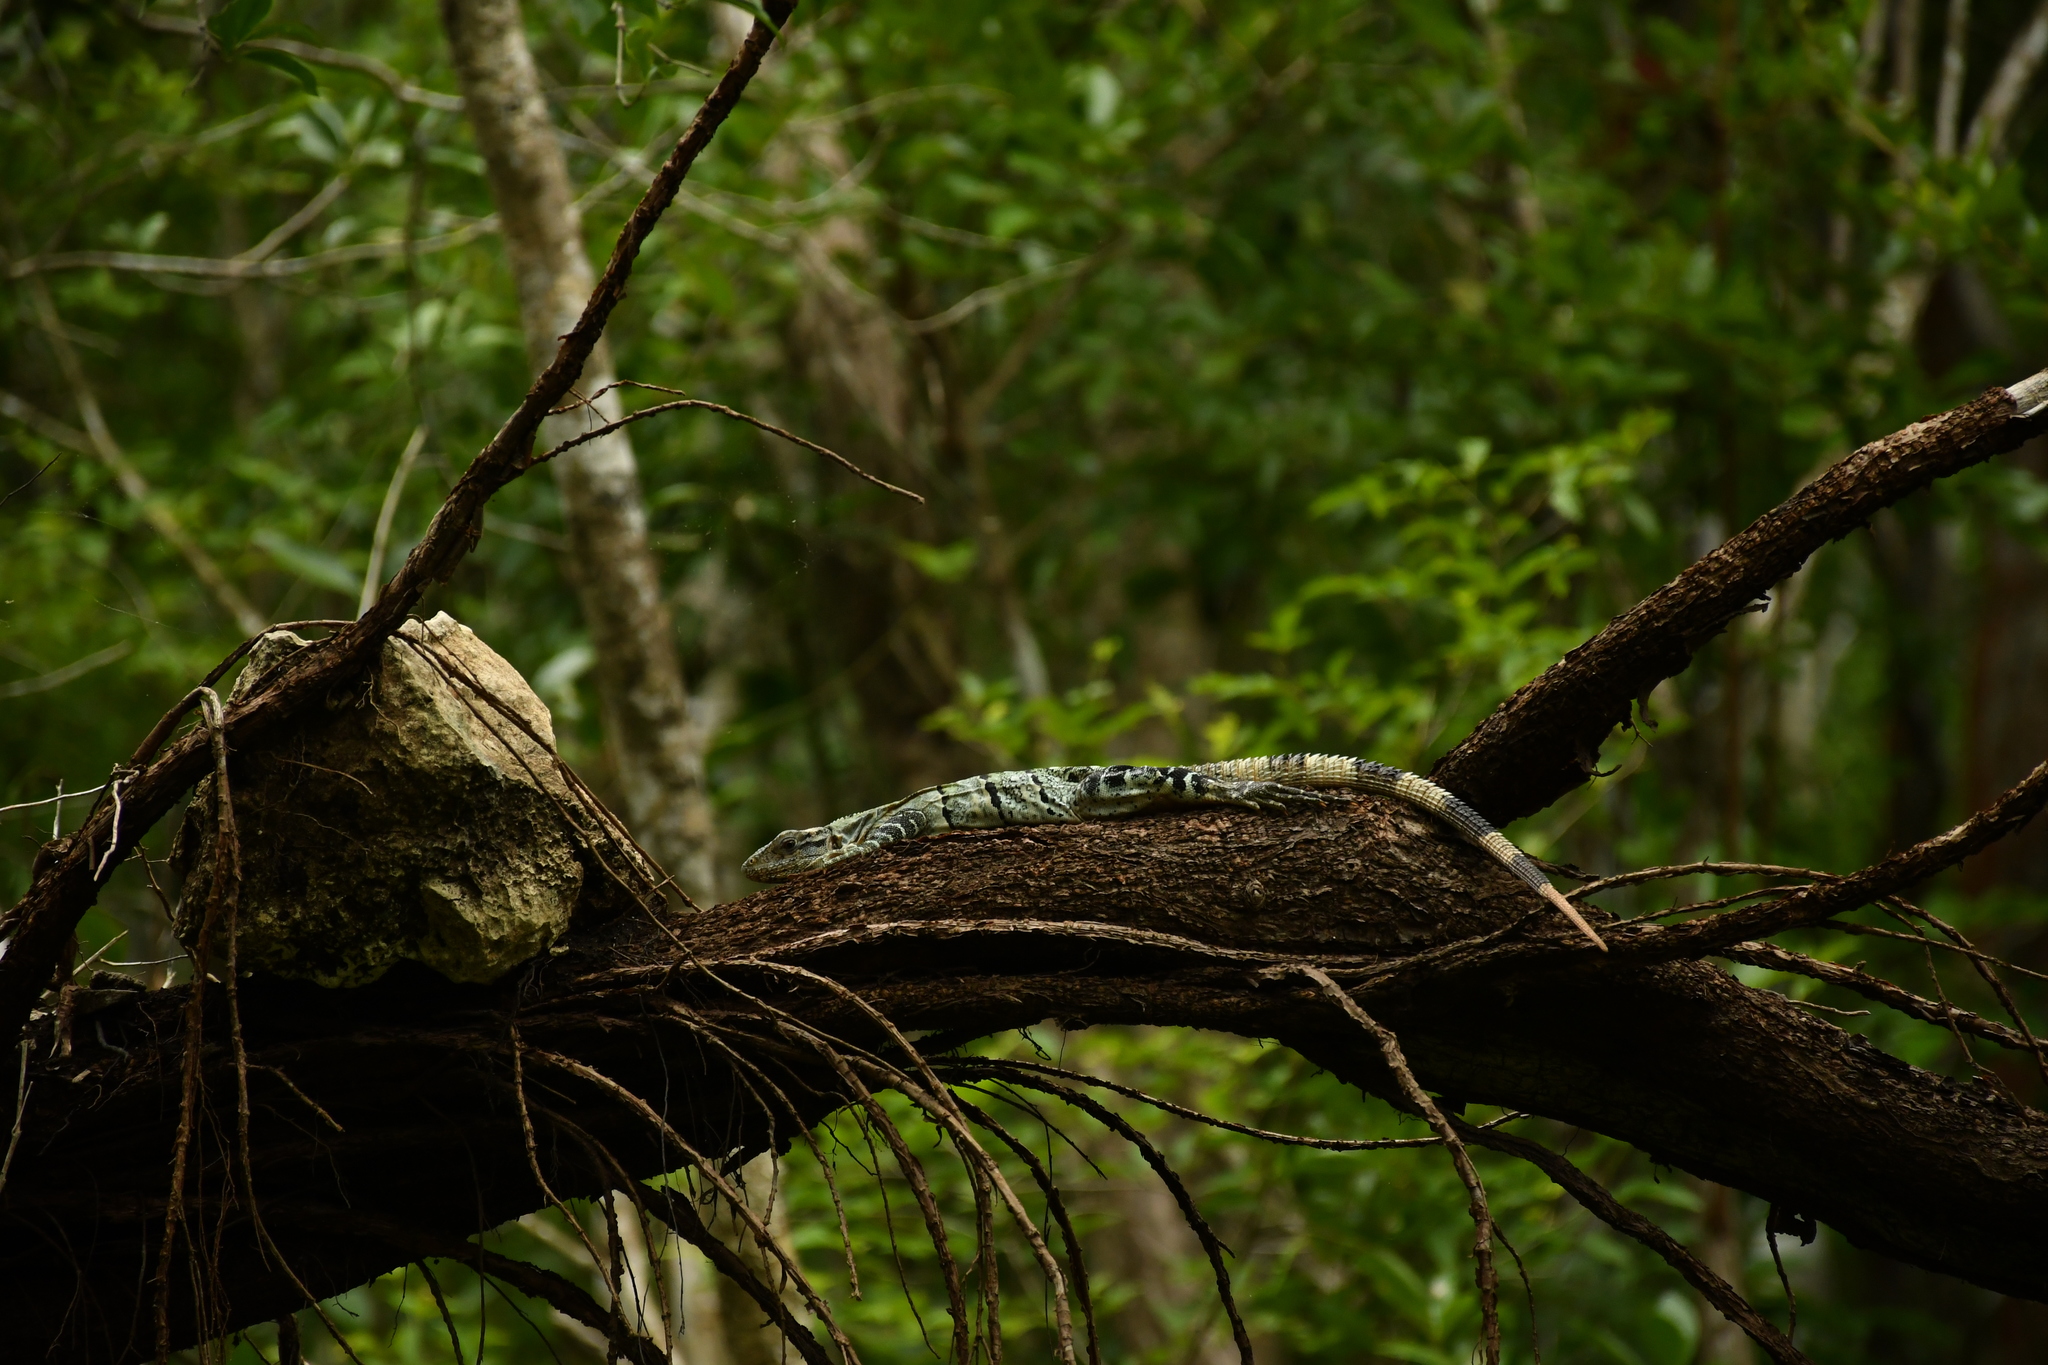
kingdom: Animalia
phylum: Chordata
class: Squamata
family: Iguanidae
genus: Ctenosaura
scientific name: Ctenosaura similis
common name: Black spiny-tailed iguana
